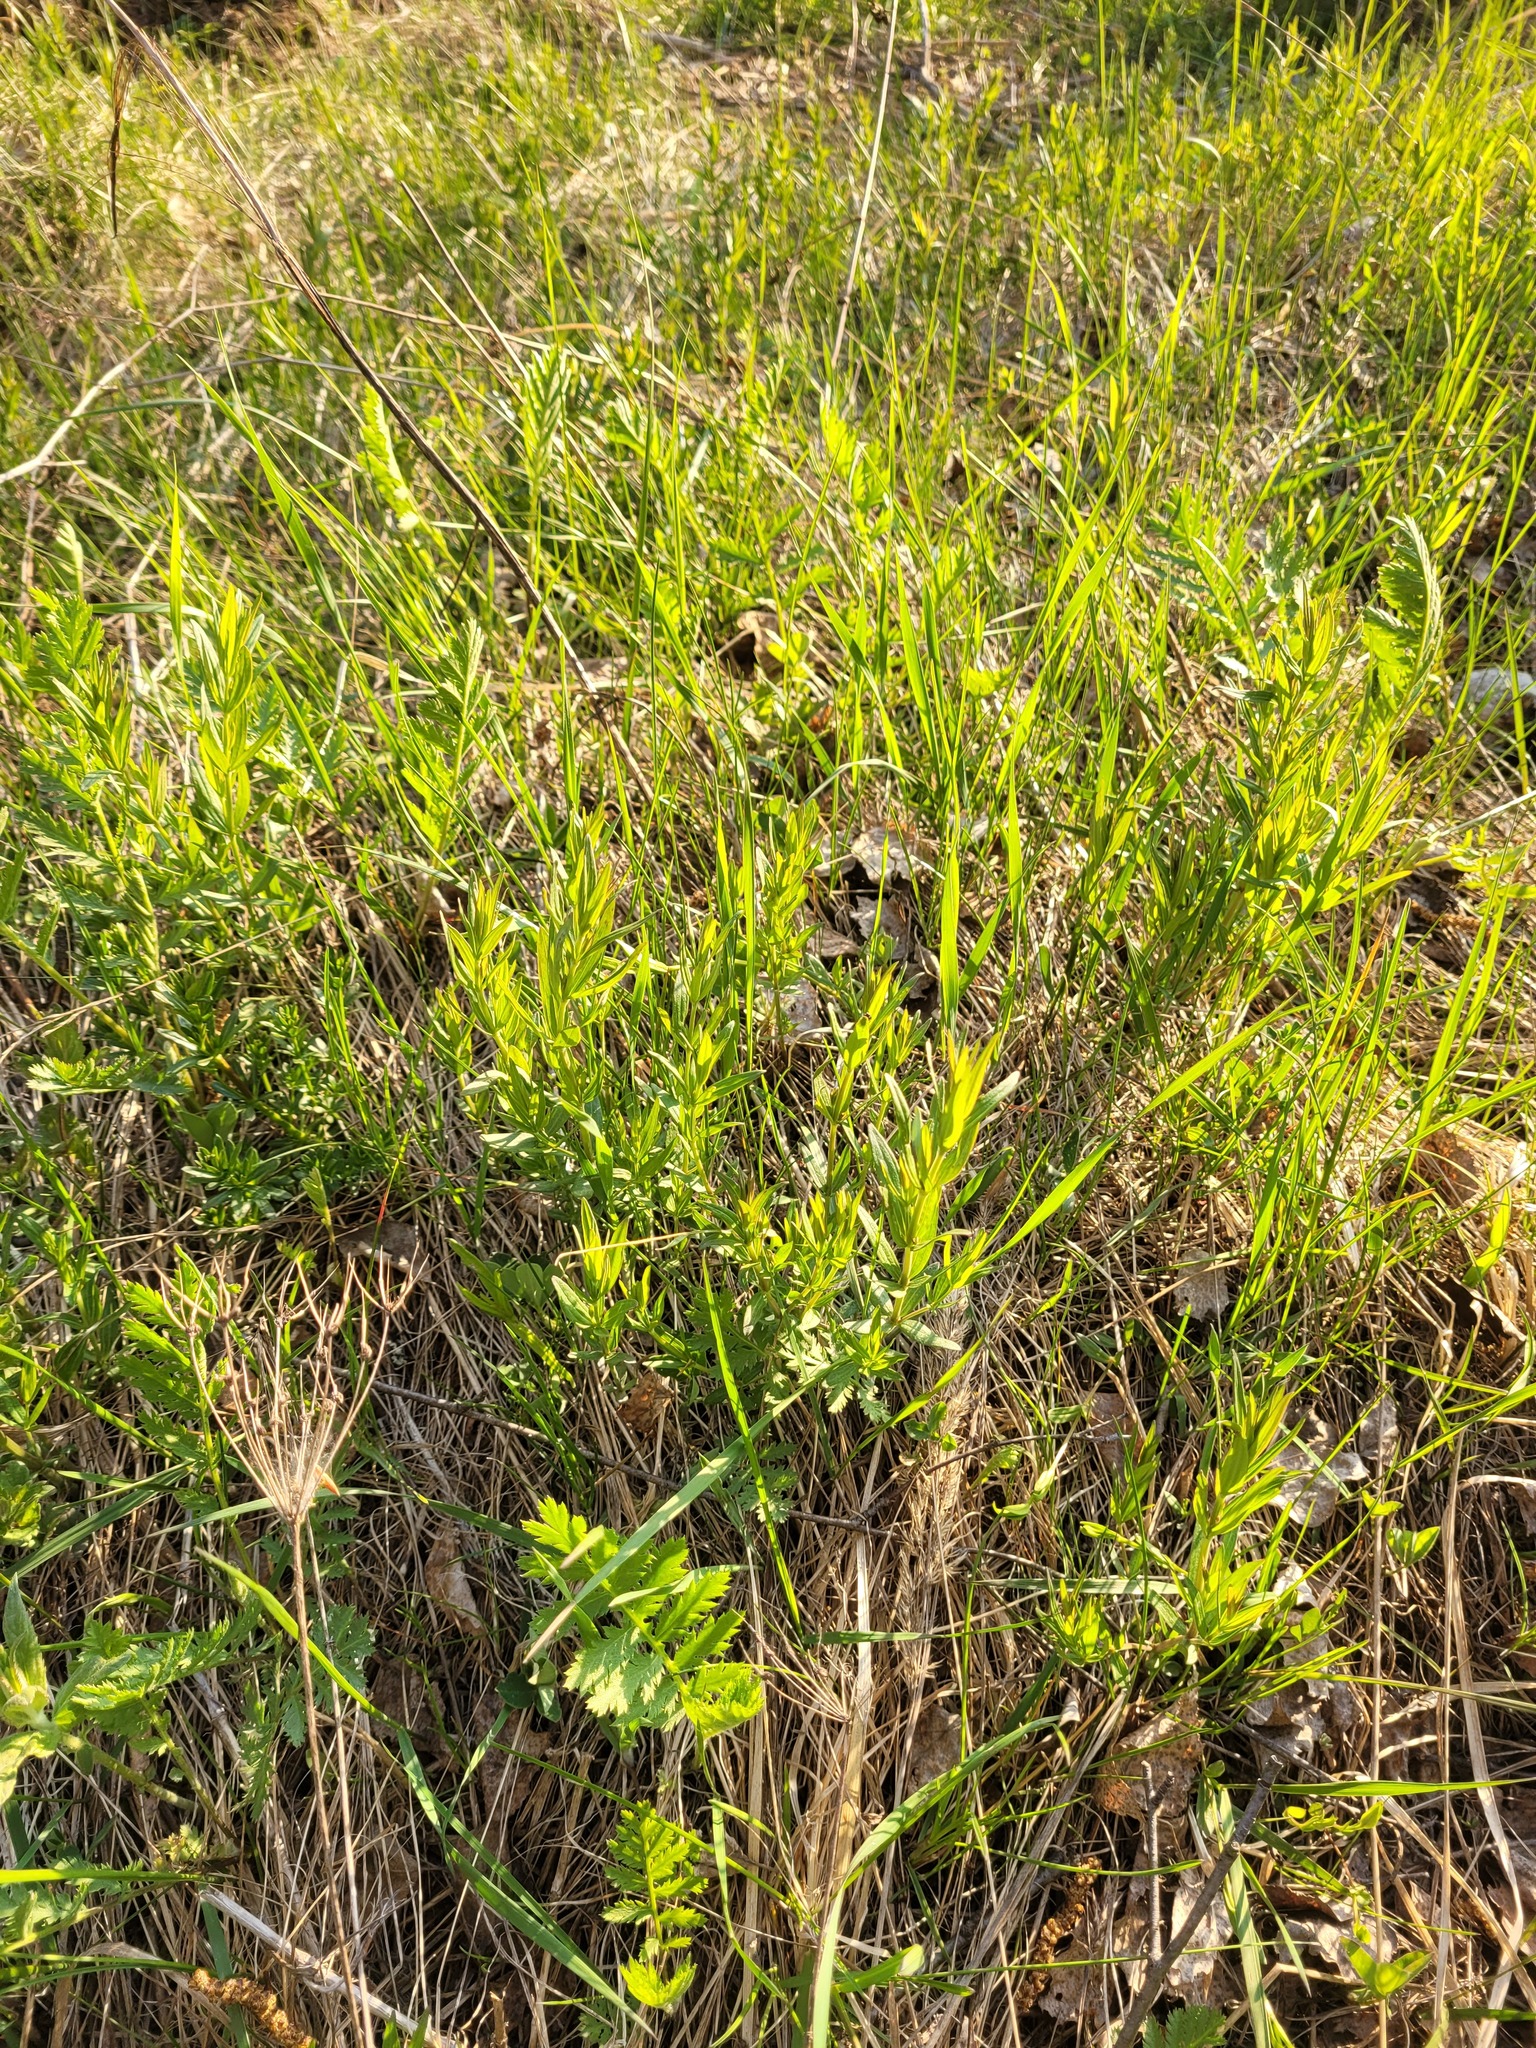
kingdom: Plantae
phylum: Tracheophyta
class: Magnoliopsida
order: Gentianales
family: Rubiaceae
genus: Galium
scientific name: Galium rubioides
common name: European bedstraw
